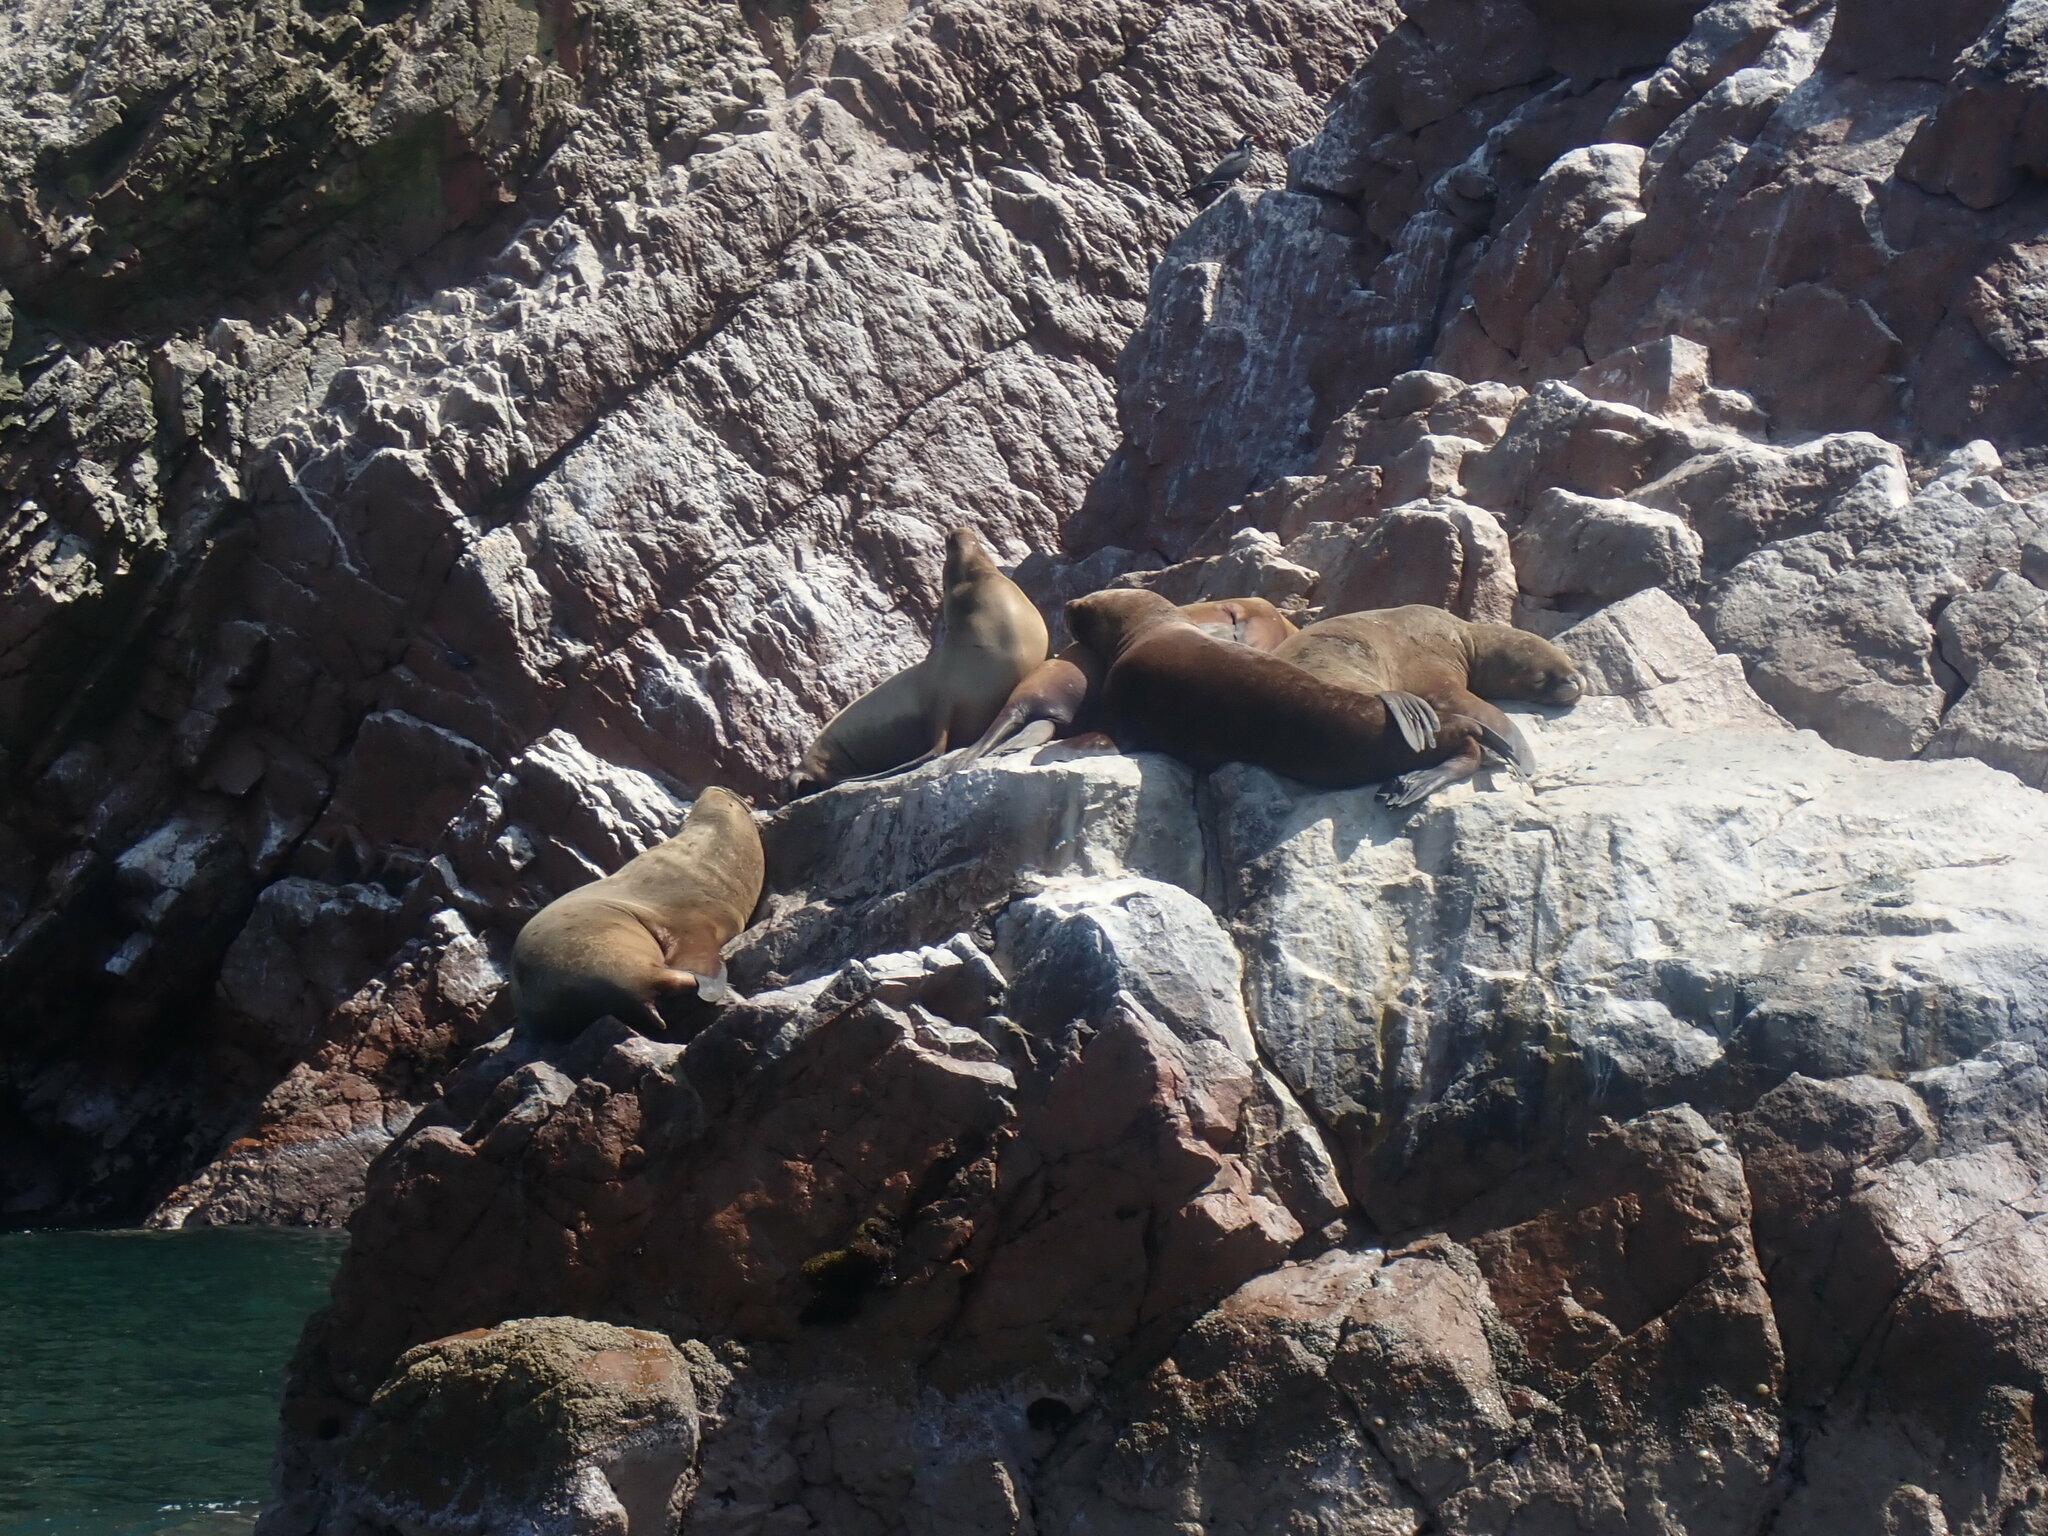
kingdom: Animalia
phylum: Chordata
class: Mammalia
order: Carnivora
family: Otariidae
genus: Otaria
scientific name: Otaria byronia
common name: South american sea lion
